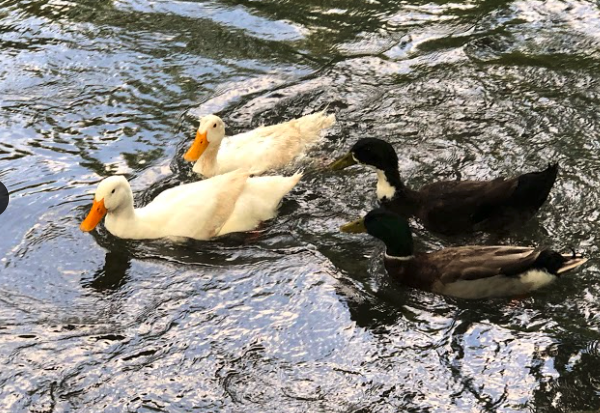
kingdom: Animalia
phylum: Chordata
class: Aves
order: Anseriformes
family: Anatidae
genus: Anas
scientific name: Anas platyrhynchos
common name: Mallard
